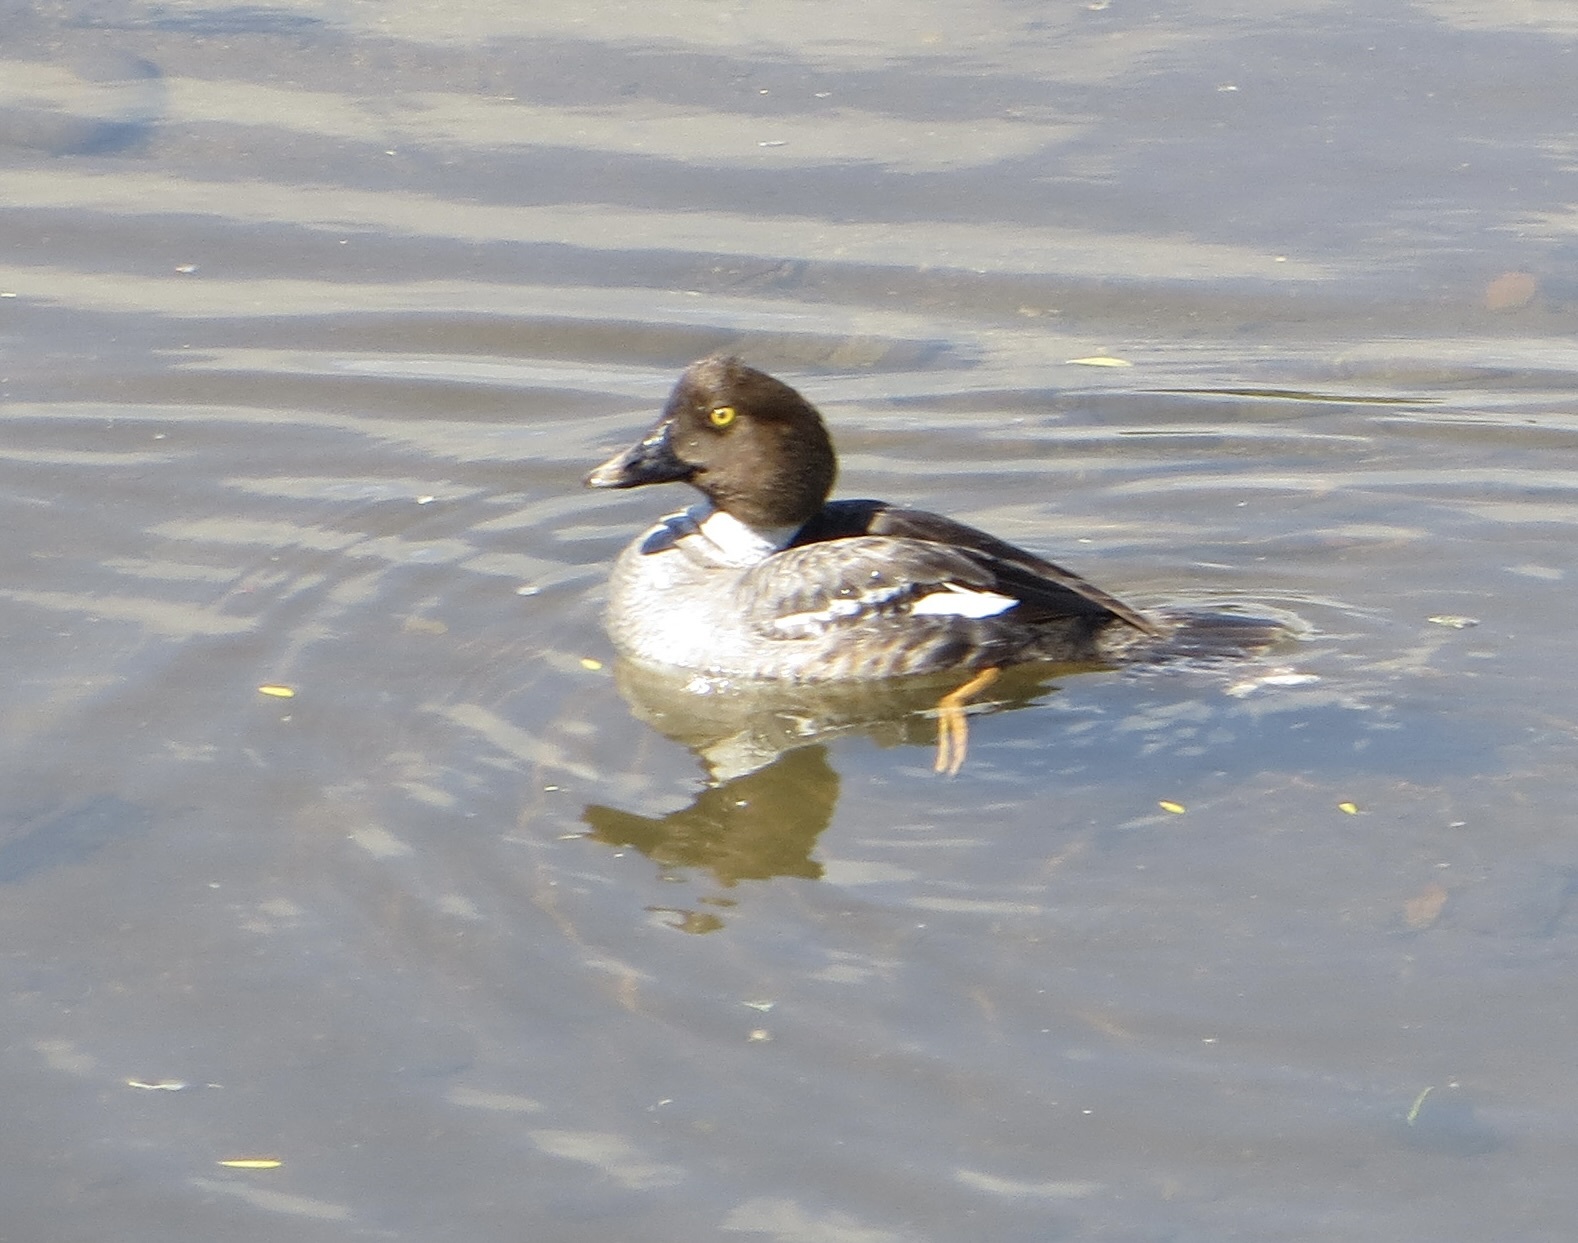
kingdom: Animalia
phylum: Chordata
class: Aves
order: Anseriformes
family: Anatidae
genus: Bucephala
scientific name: Bucephala clangula
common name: Common goldeneye
